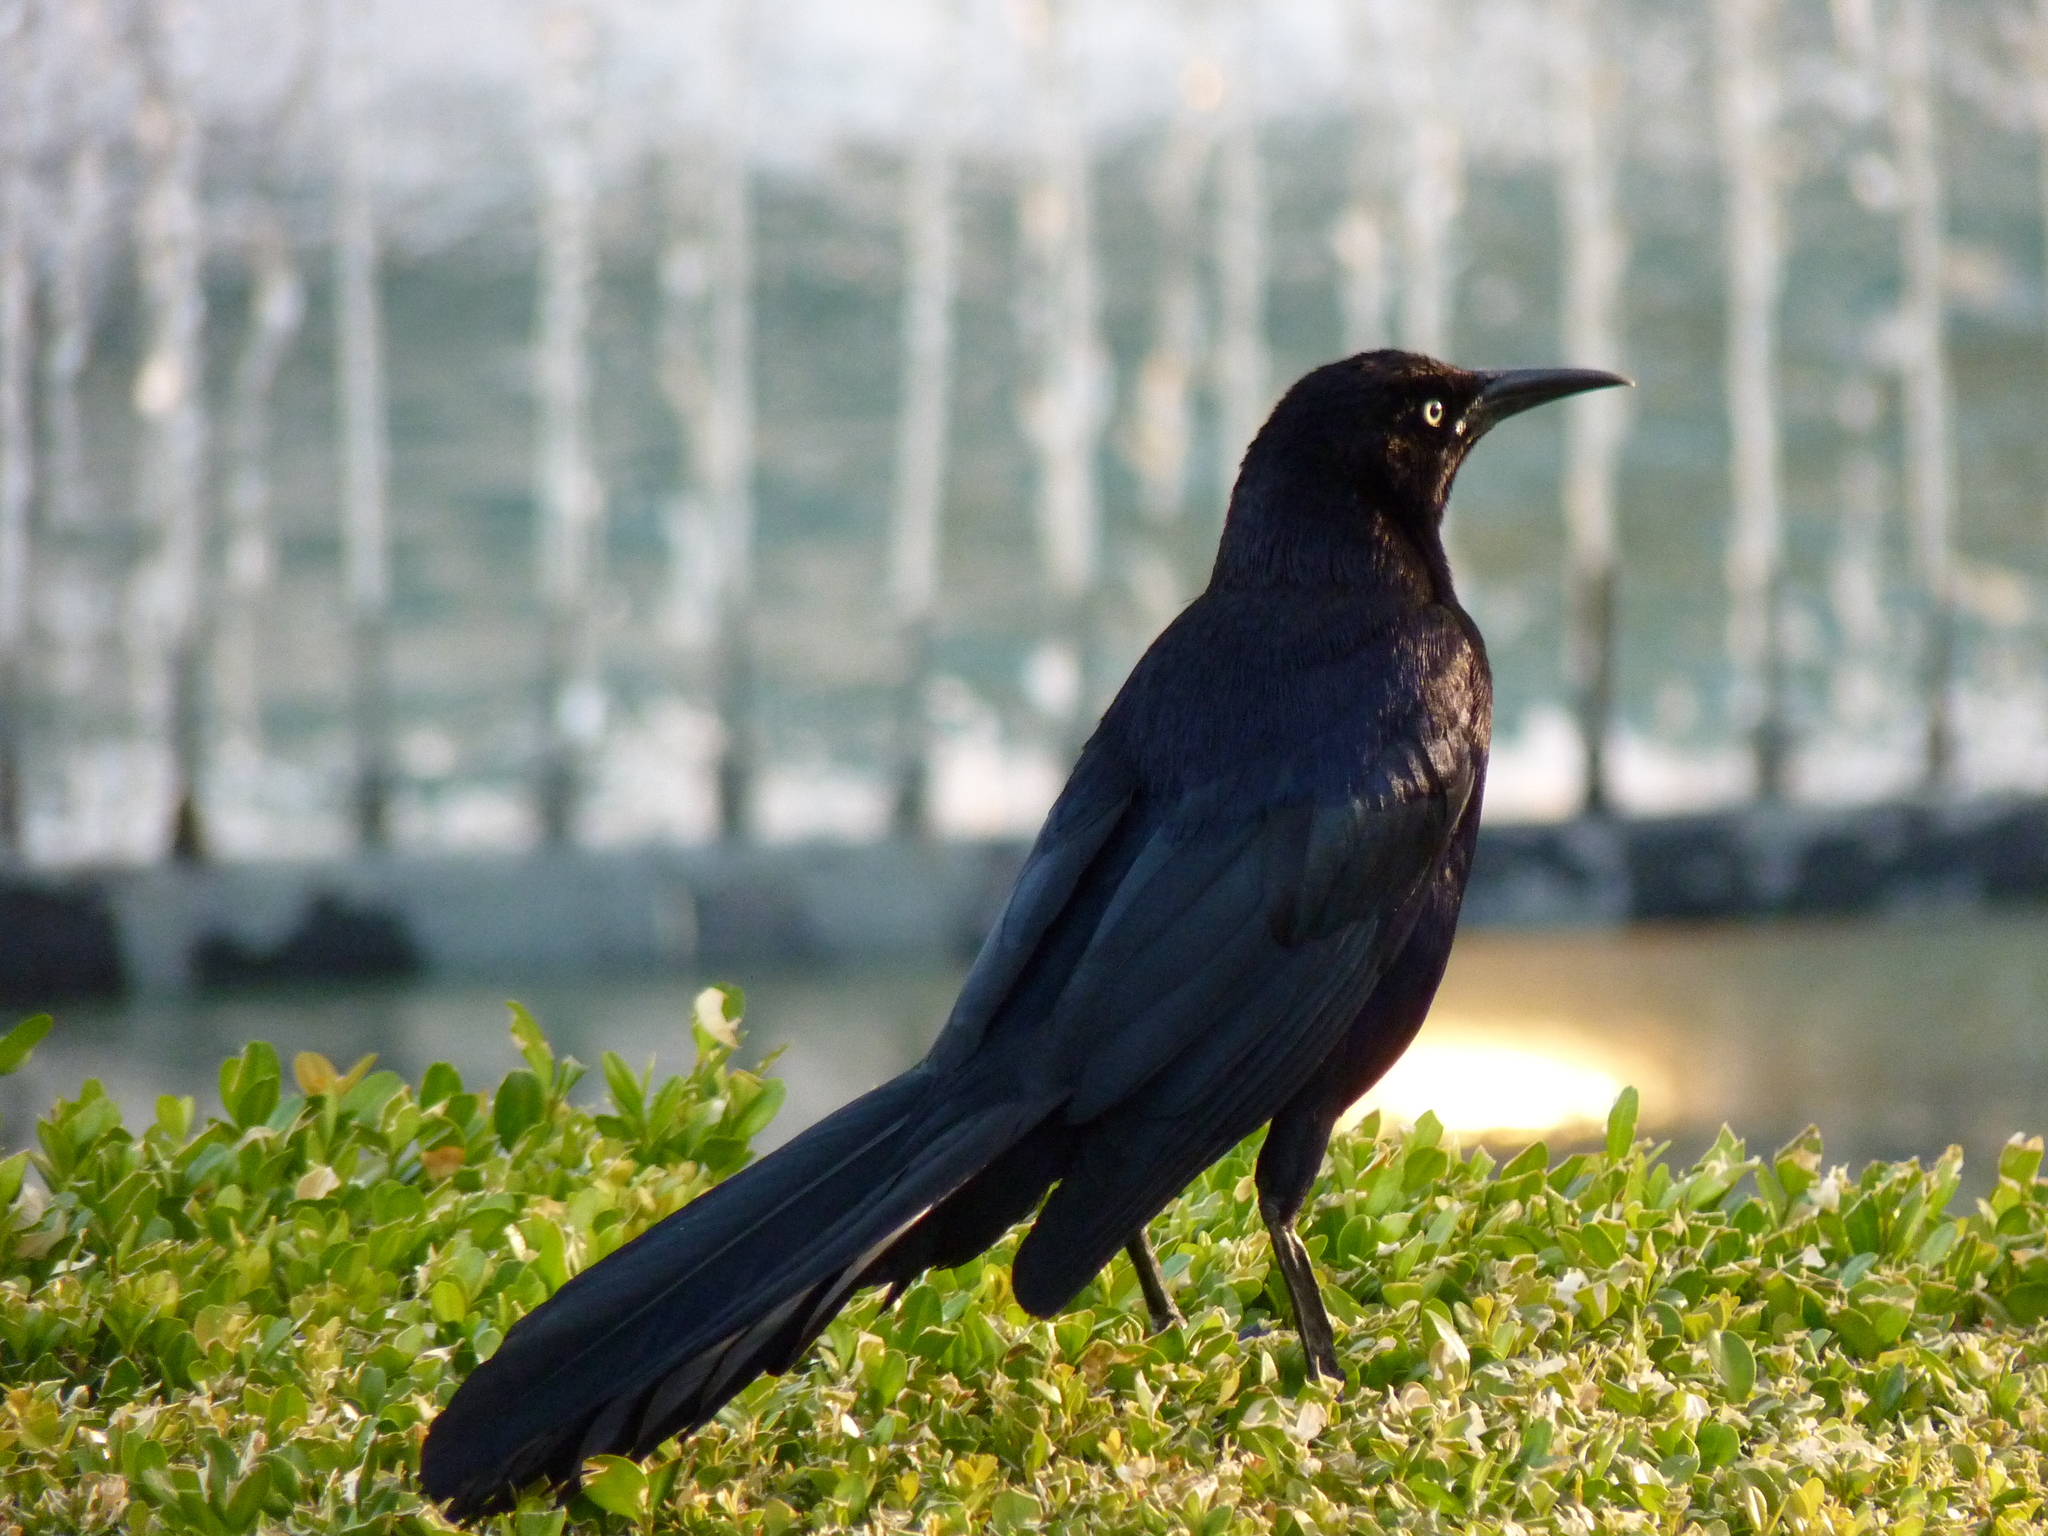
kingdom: Animalia
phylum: Chordata
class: Aves
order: Passeriformes
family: Icteridae
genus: Quiscalus
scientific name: Quiscalus mexicanus
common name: Great-tailed grackle
